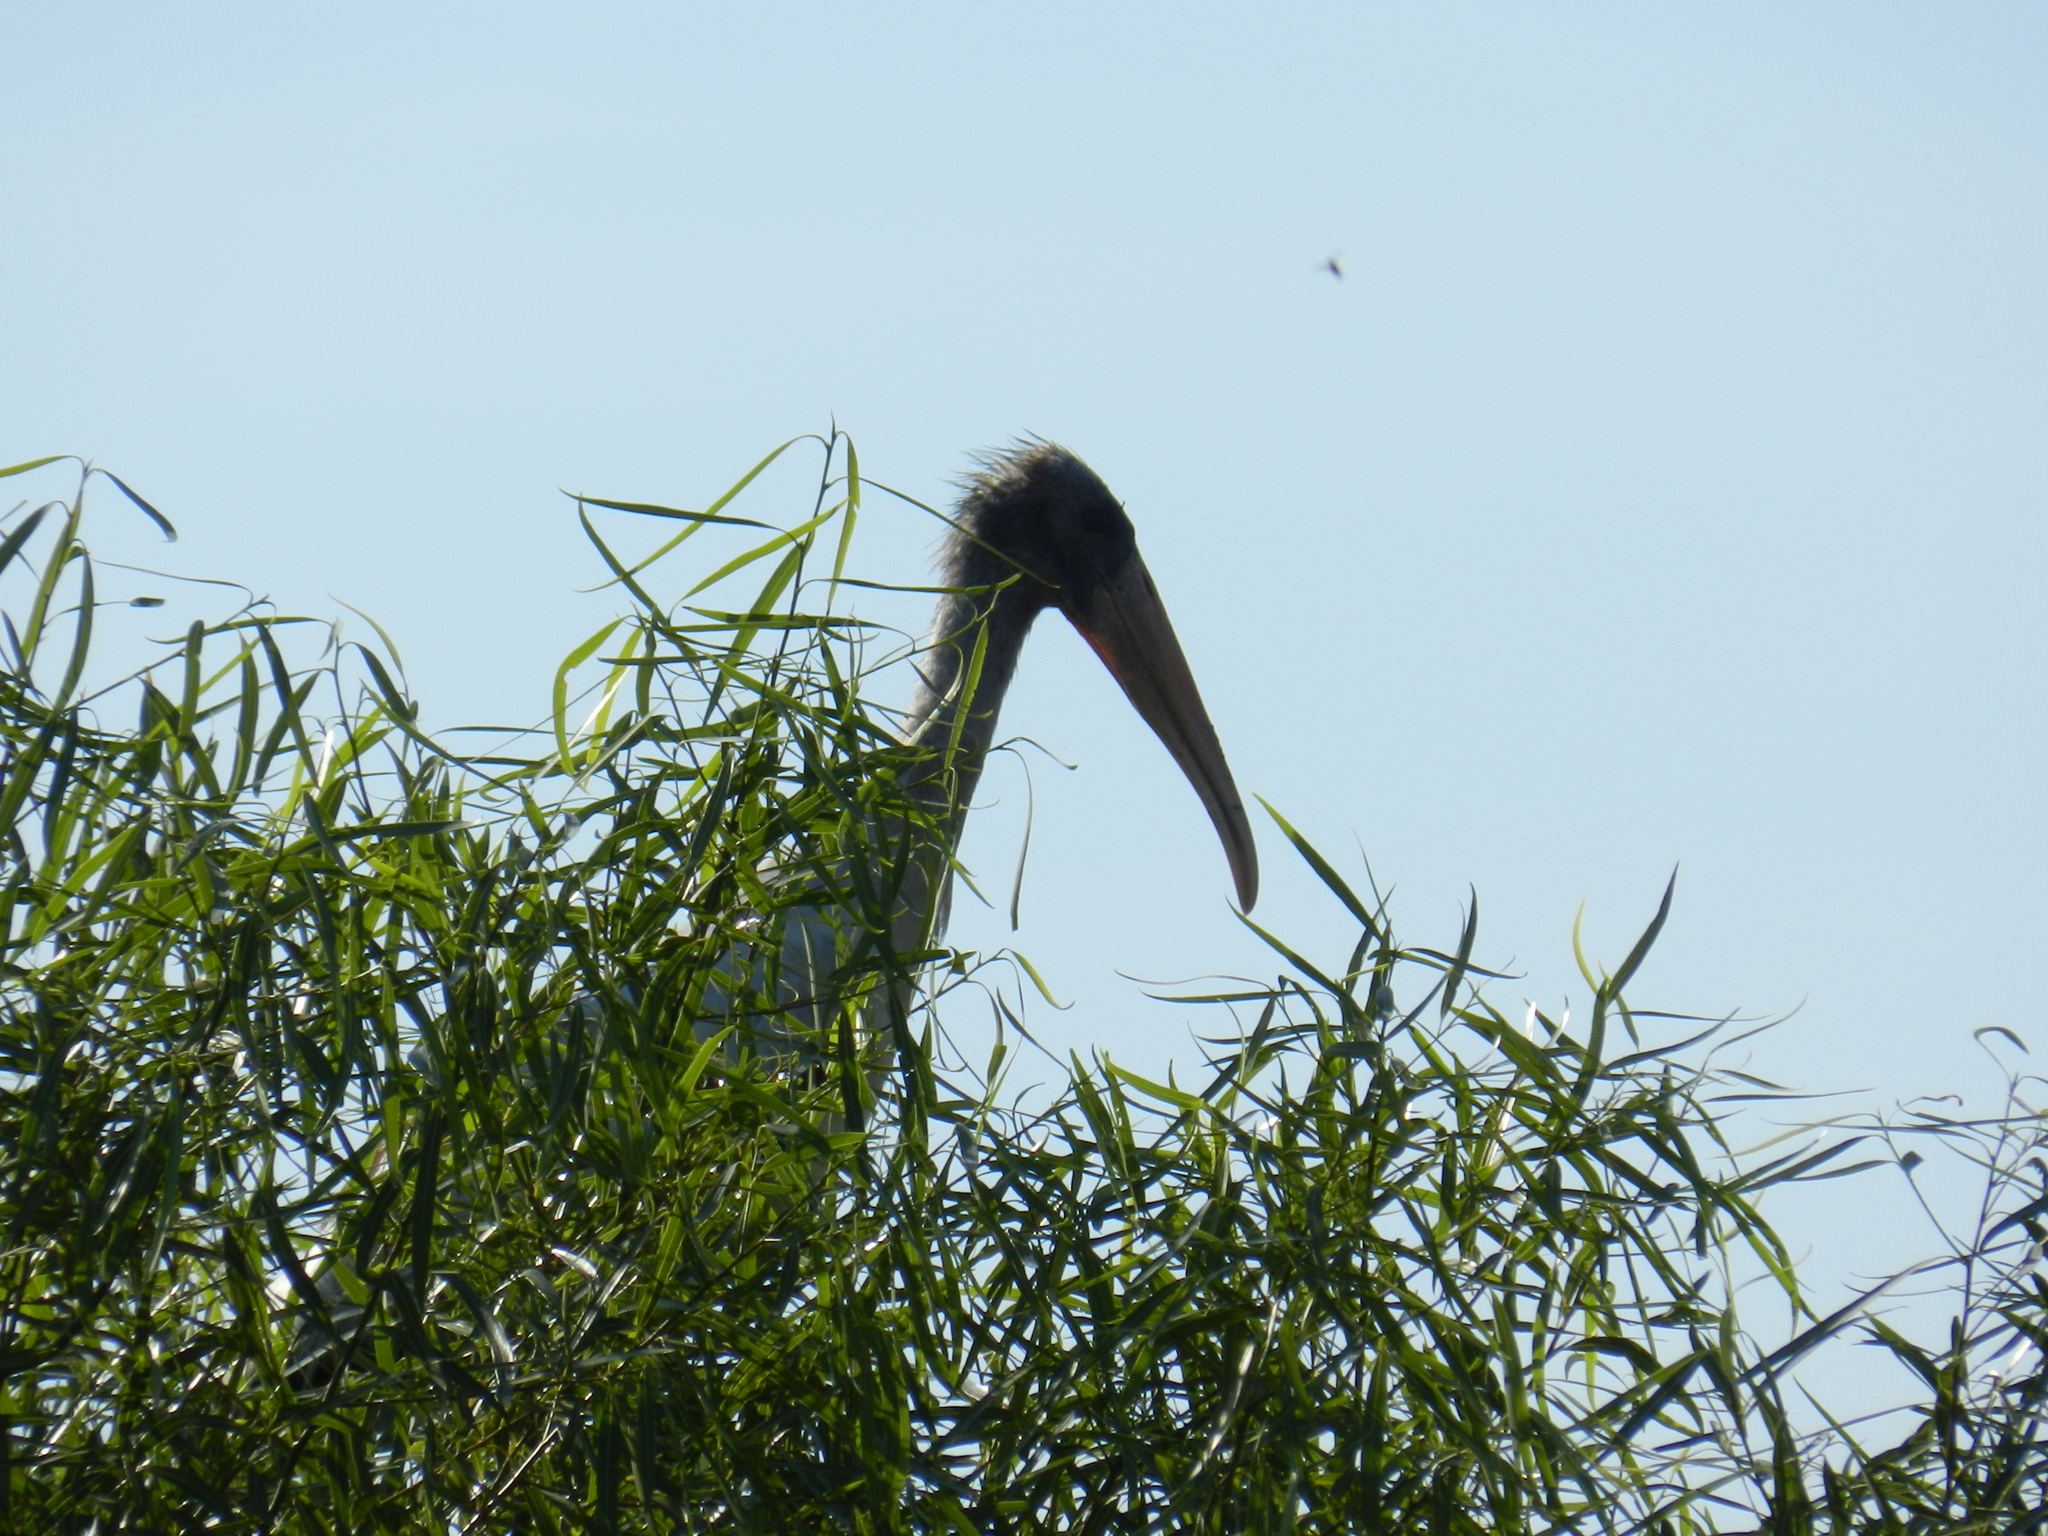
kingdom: Animalia
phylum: Chordata
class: Aves
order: Ciconiiformes
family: Ciconiidae
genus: Mycteria
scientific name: Mycteria americana
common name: Wood stork
